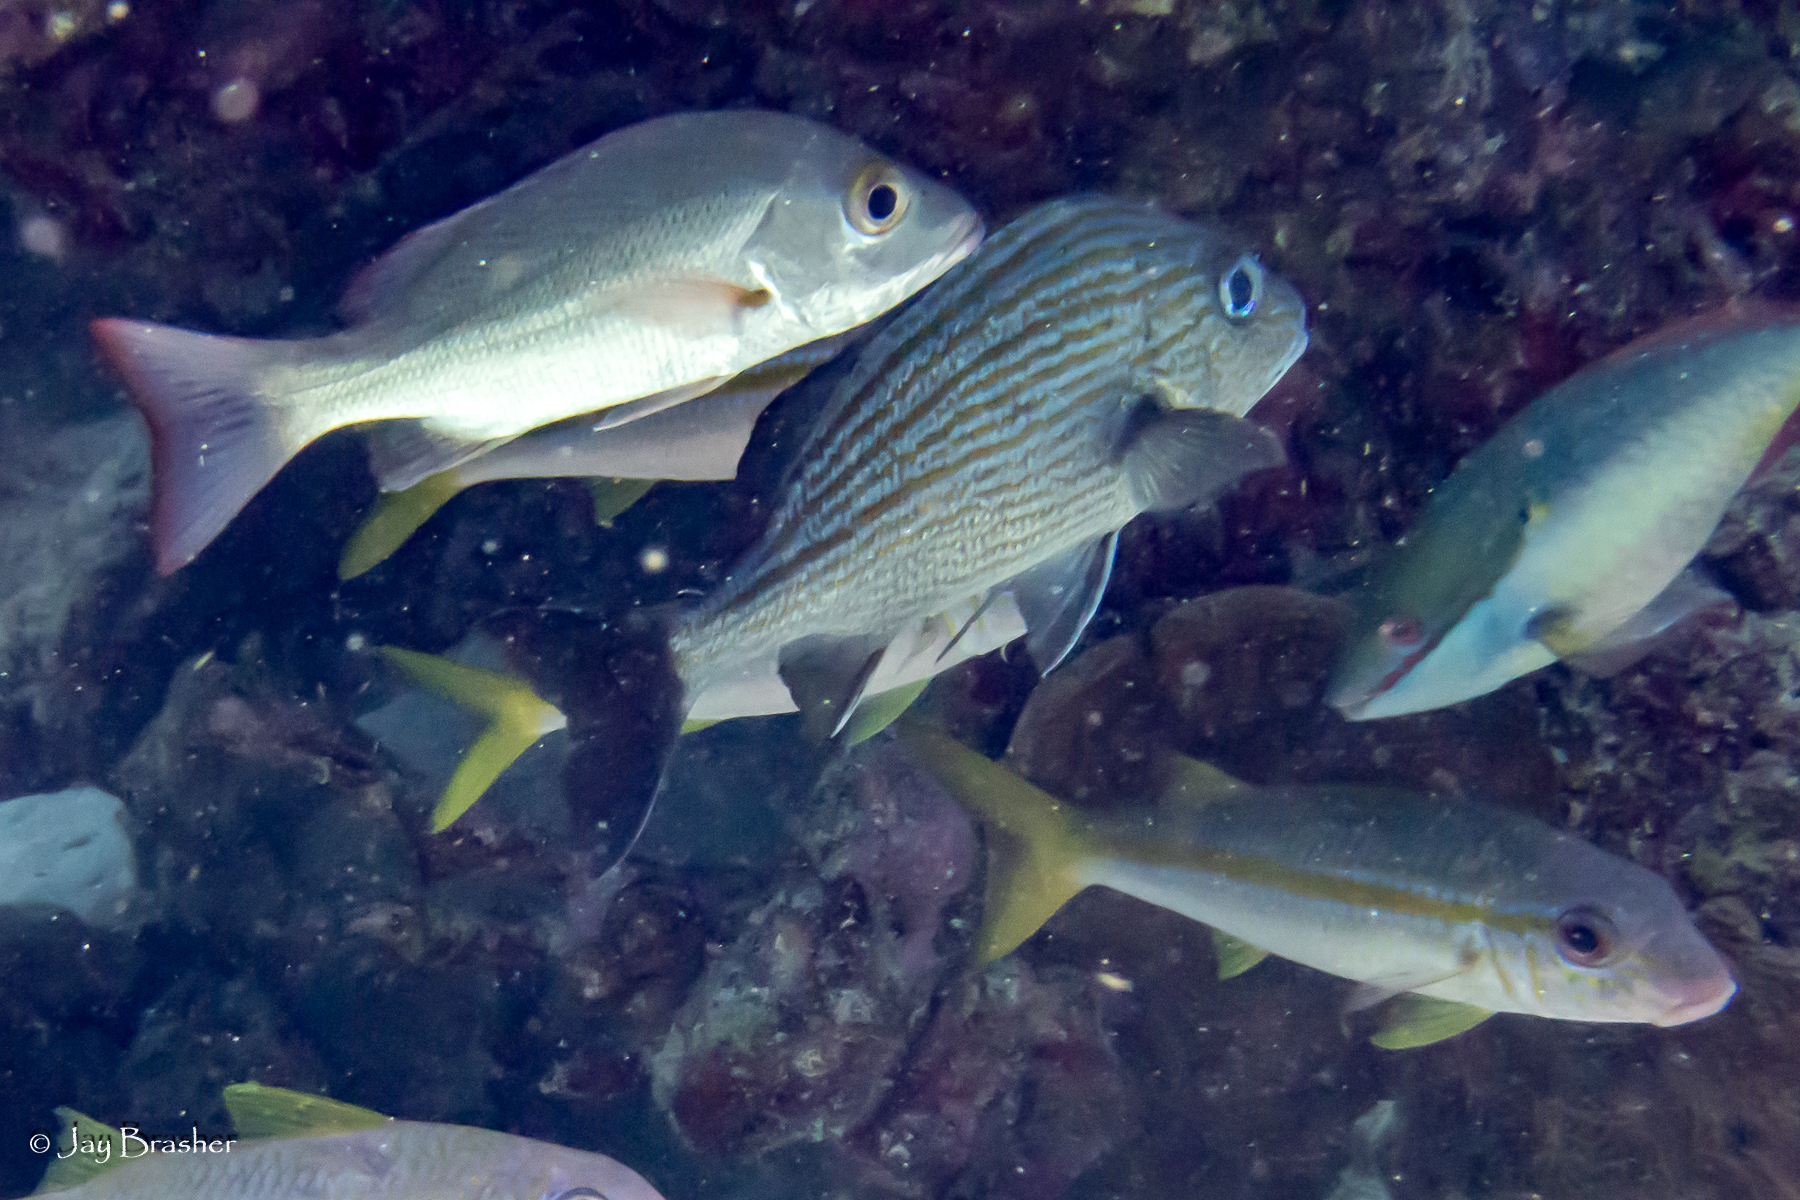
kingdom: Animalia
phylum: Chordata
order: Perciformes
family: Lutjanidae
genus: Lutjanus
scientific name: Lutjanus mahogoni
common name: Spot snapper
